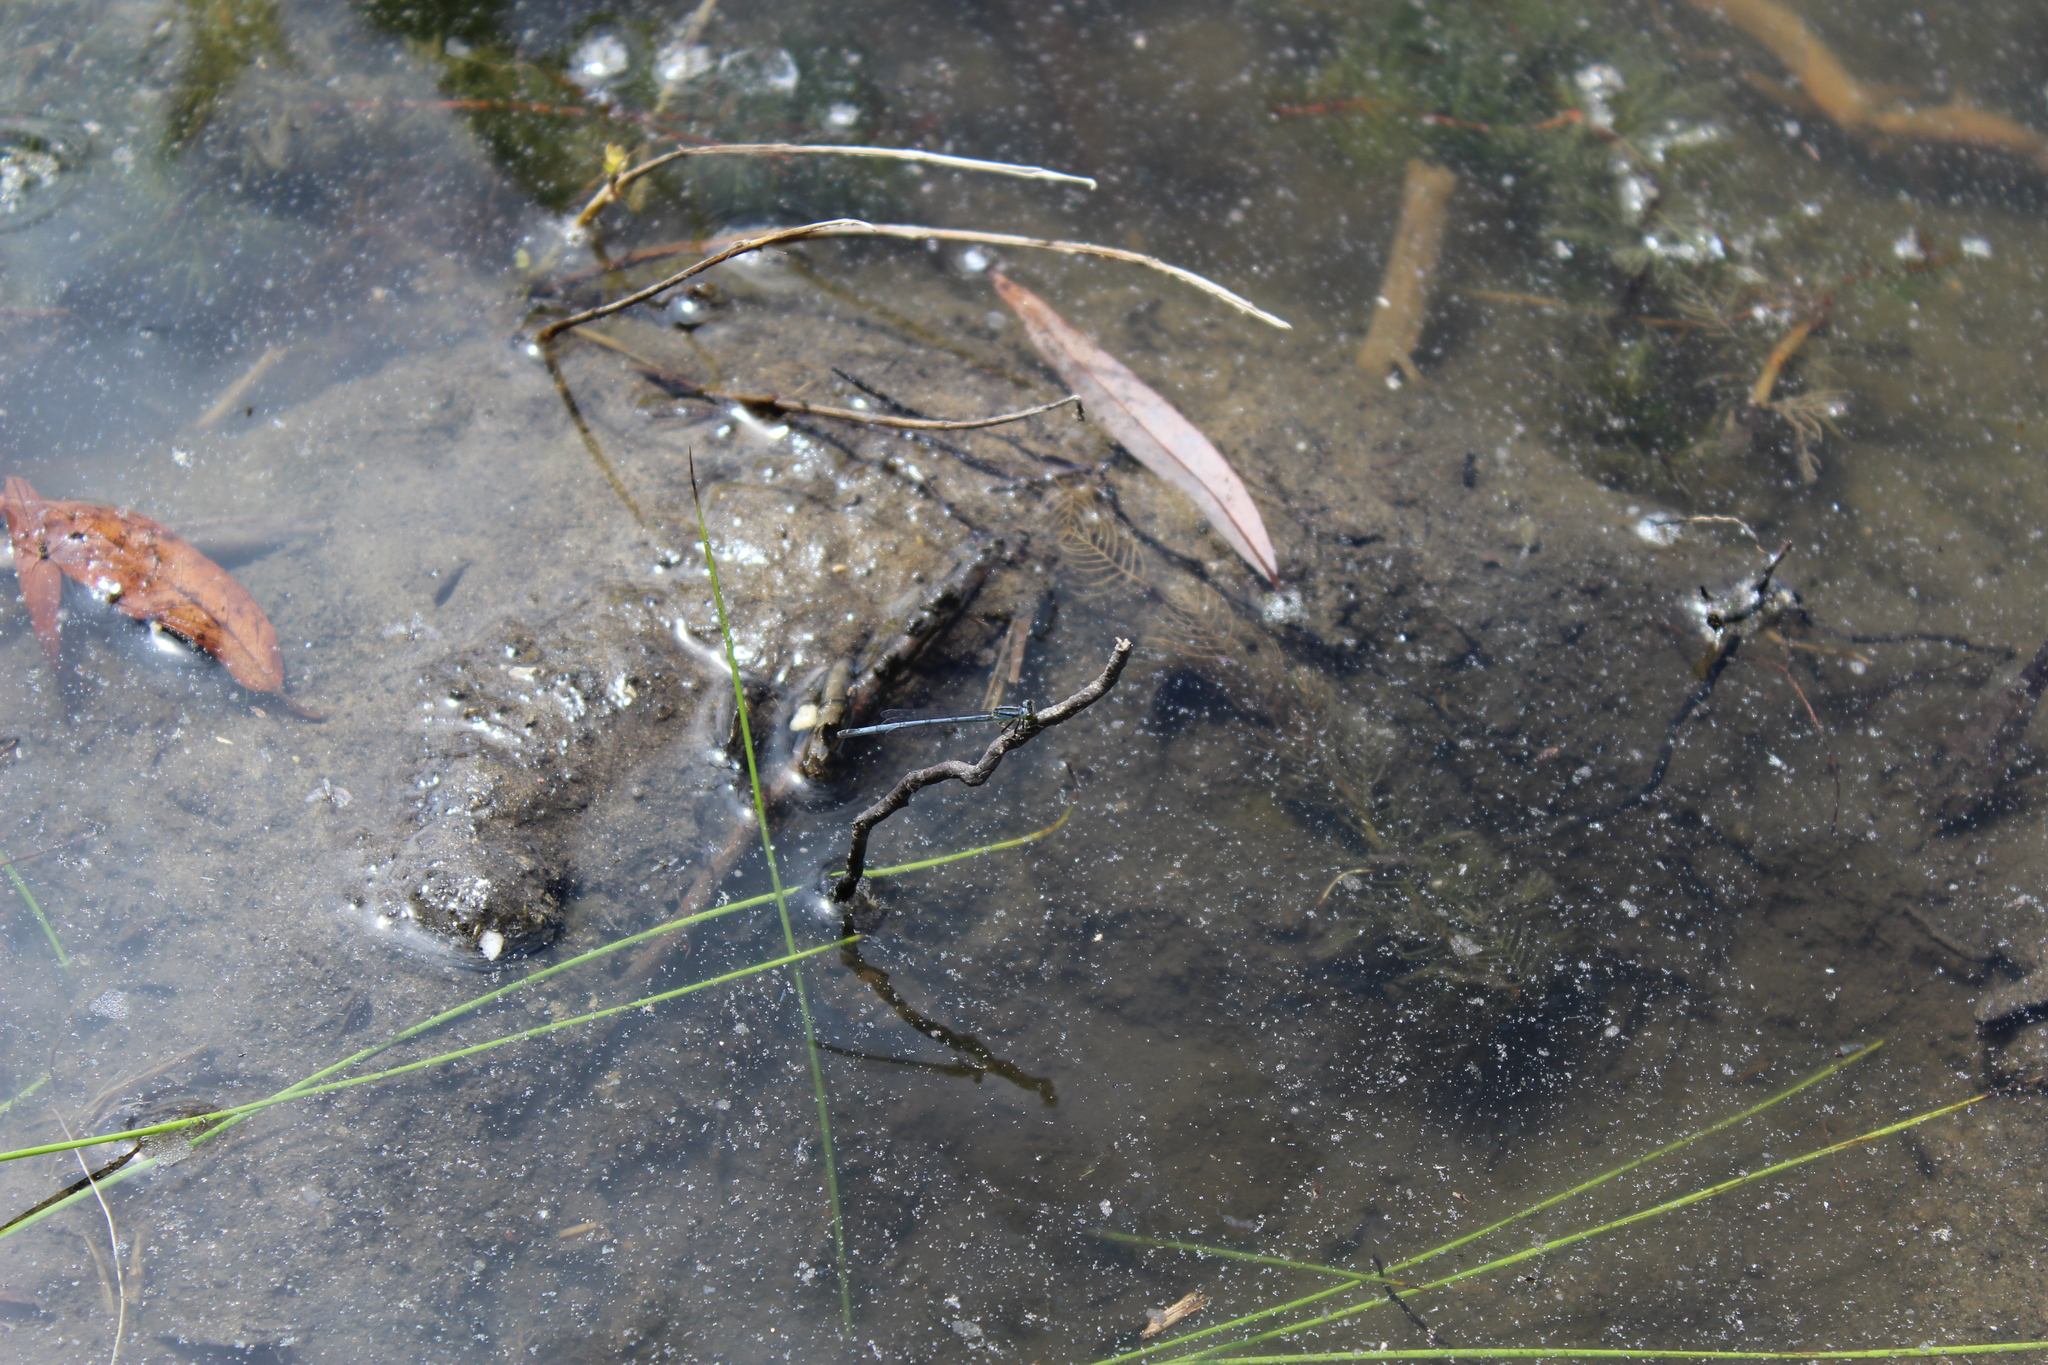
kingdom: Animalia
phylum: Arthropoda
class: Insecta
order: Odonata
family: Coenagrionidae
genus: Ischnura
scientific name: Ischnura verticalis
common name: Eastern forktail
